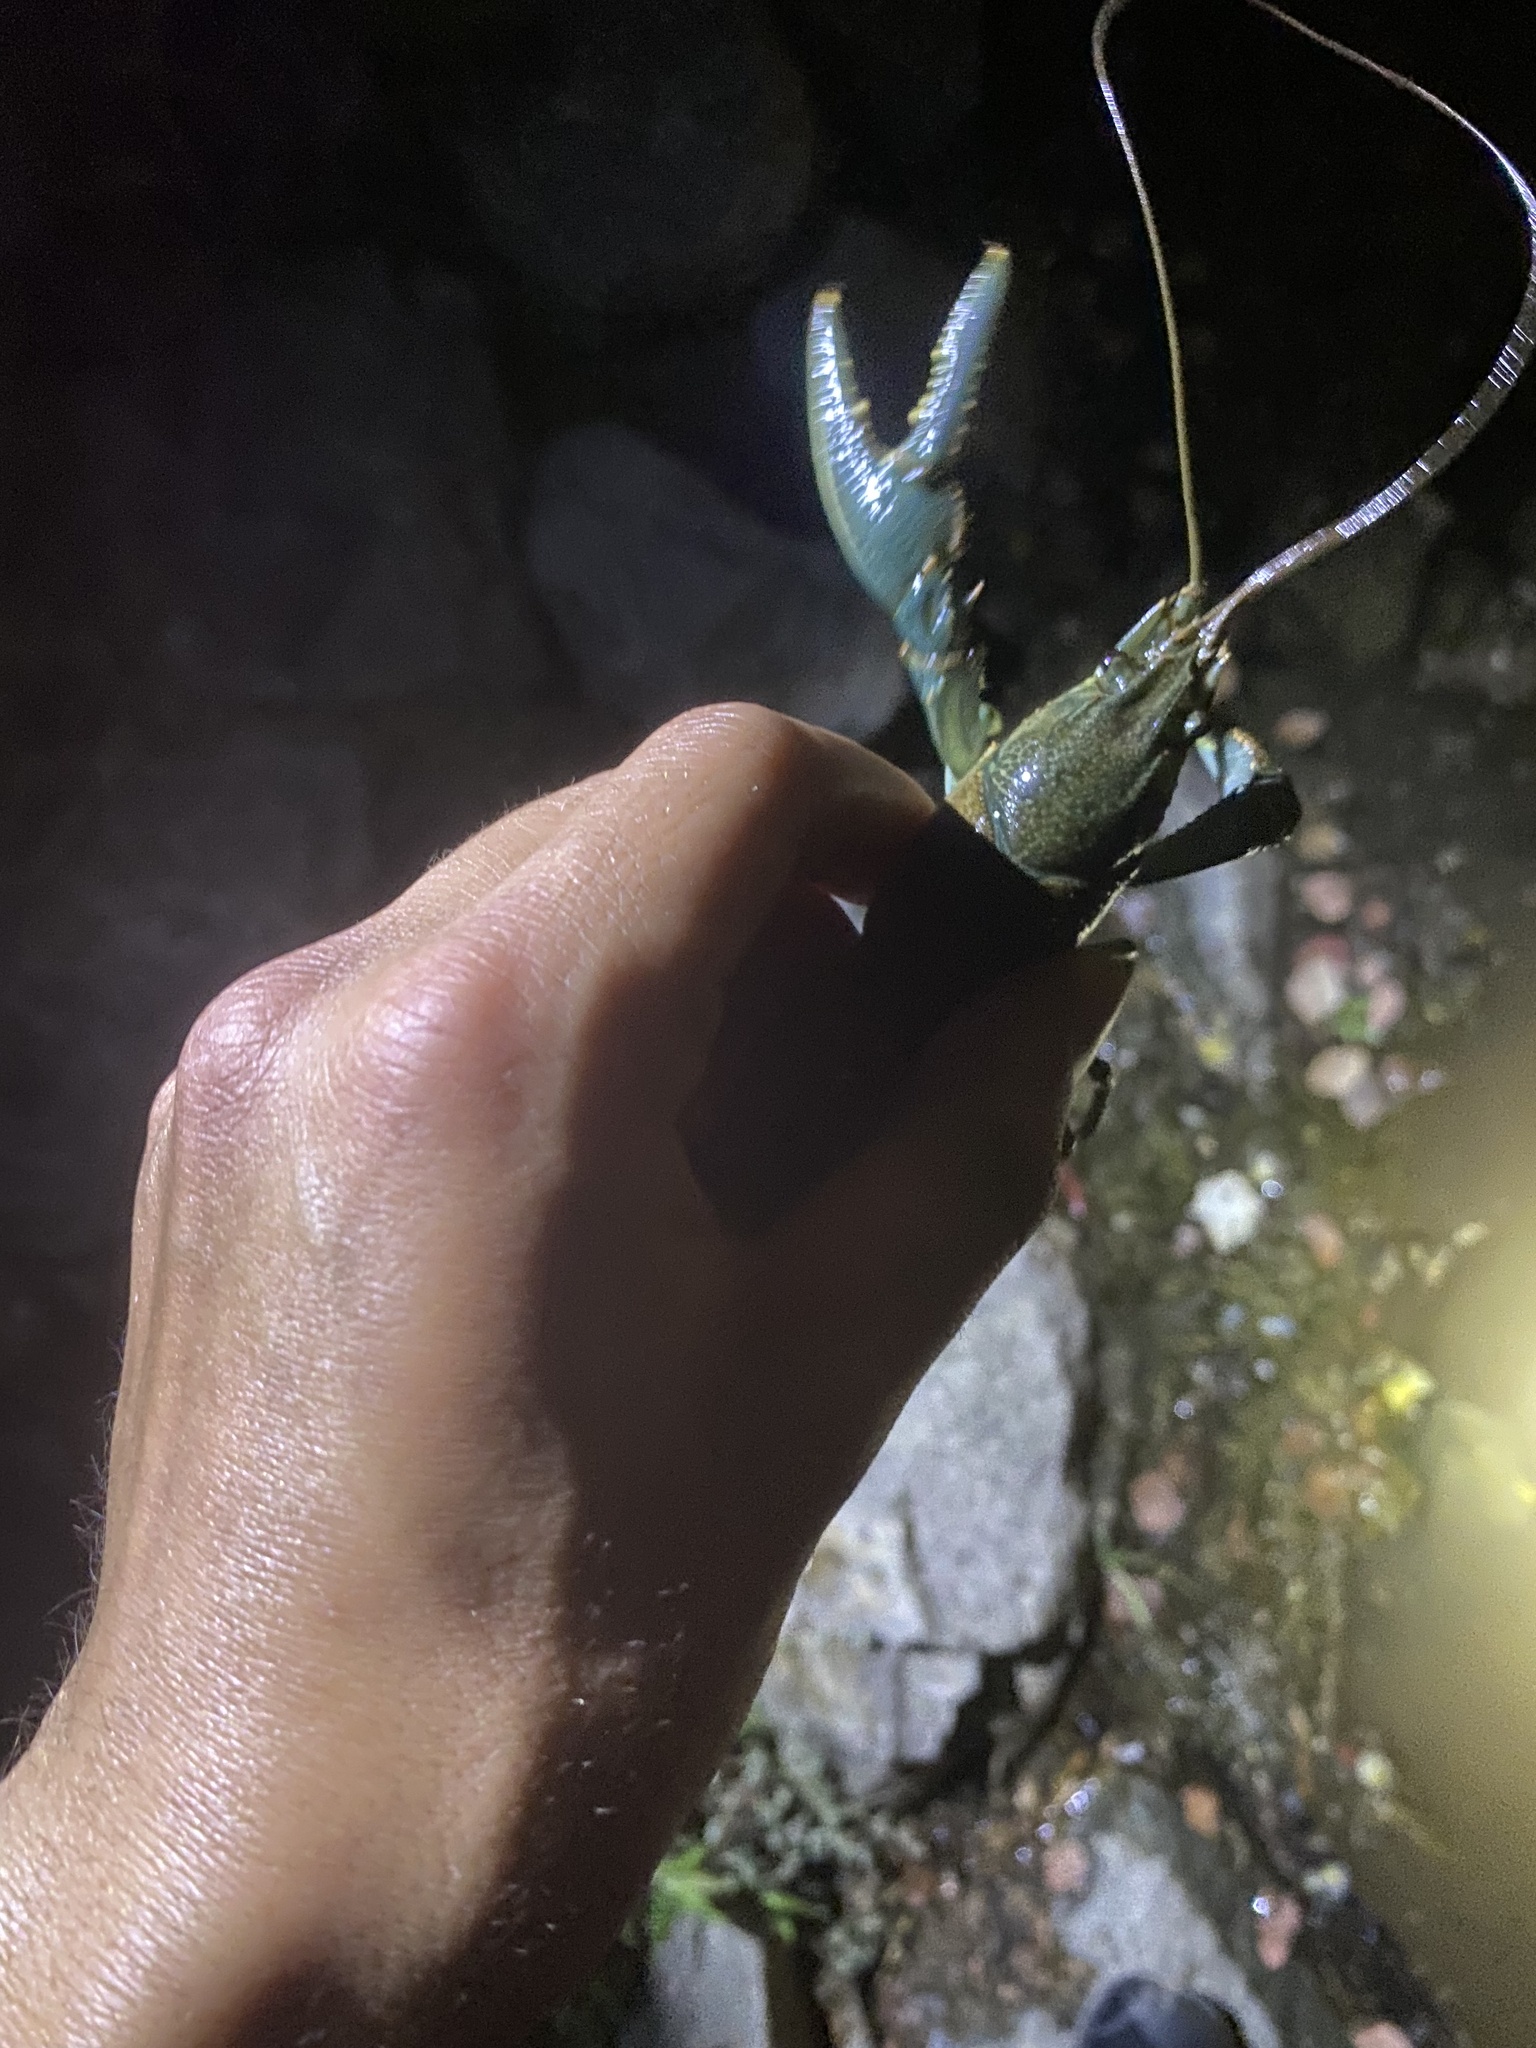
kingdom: Animalia
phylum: Arthropoda
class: Malacostraca
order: Decapoda
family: Cambaridae
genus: Faxonius
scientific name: Faxonius virilis
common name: Virile crayfish
